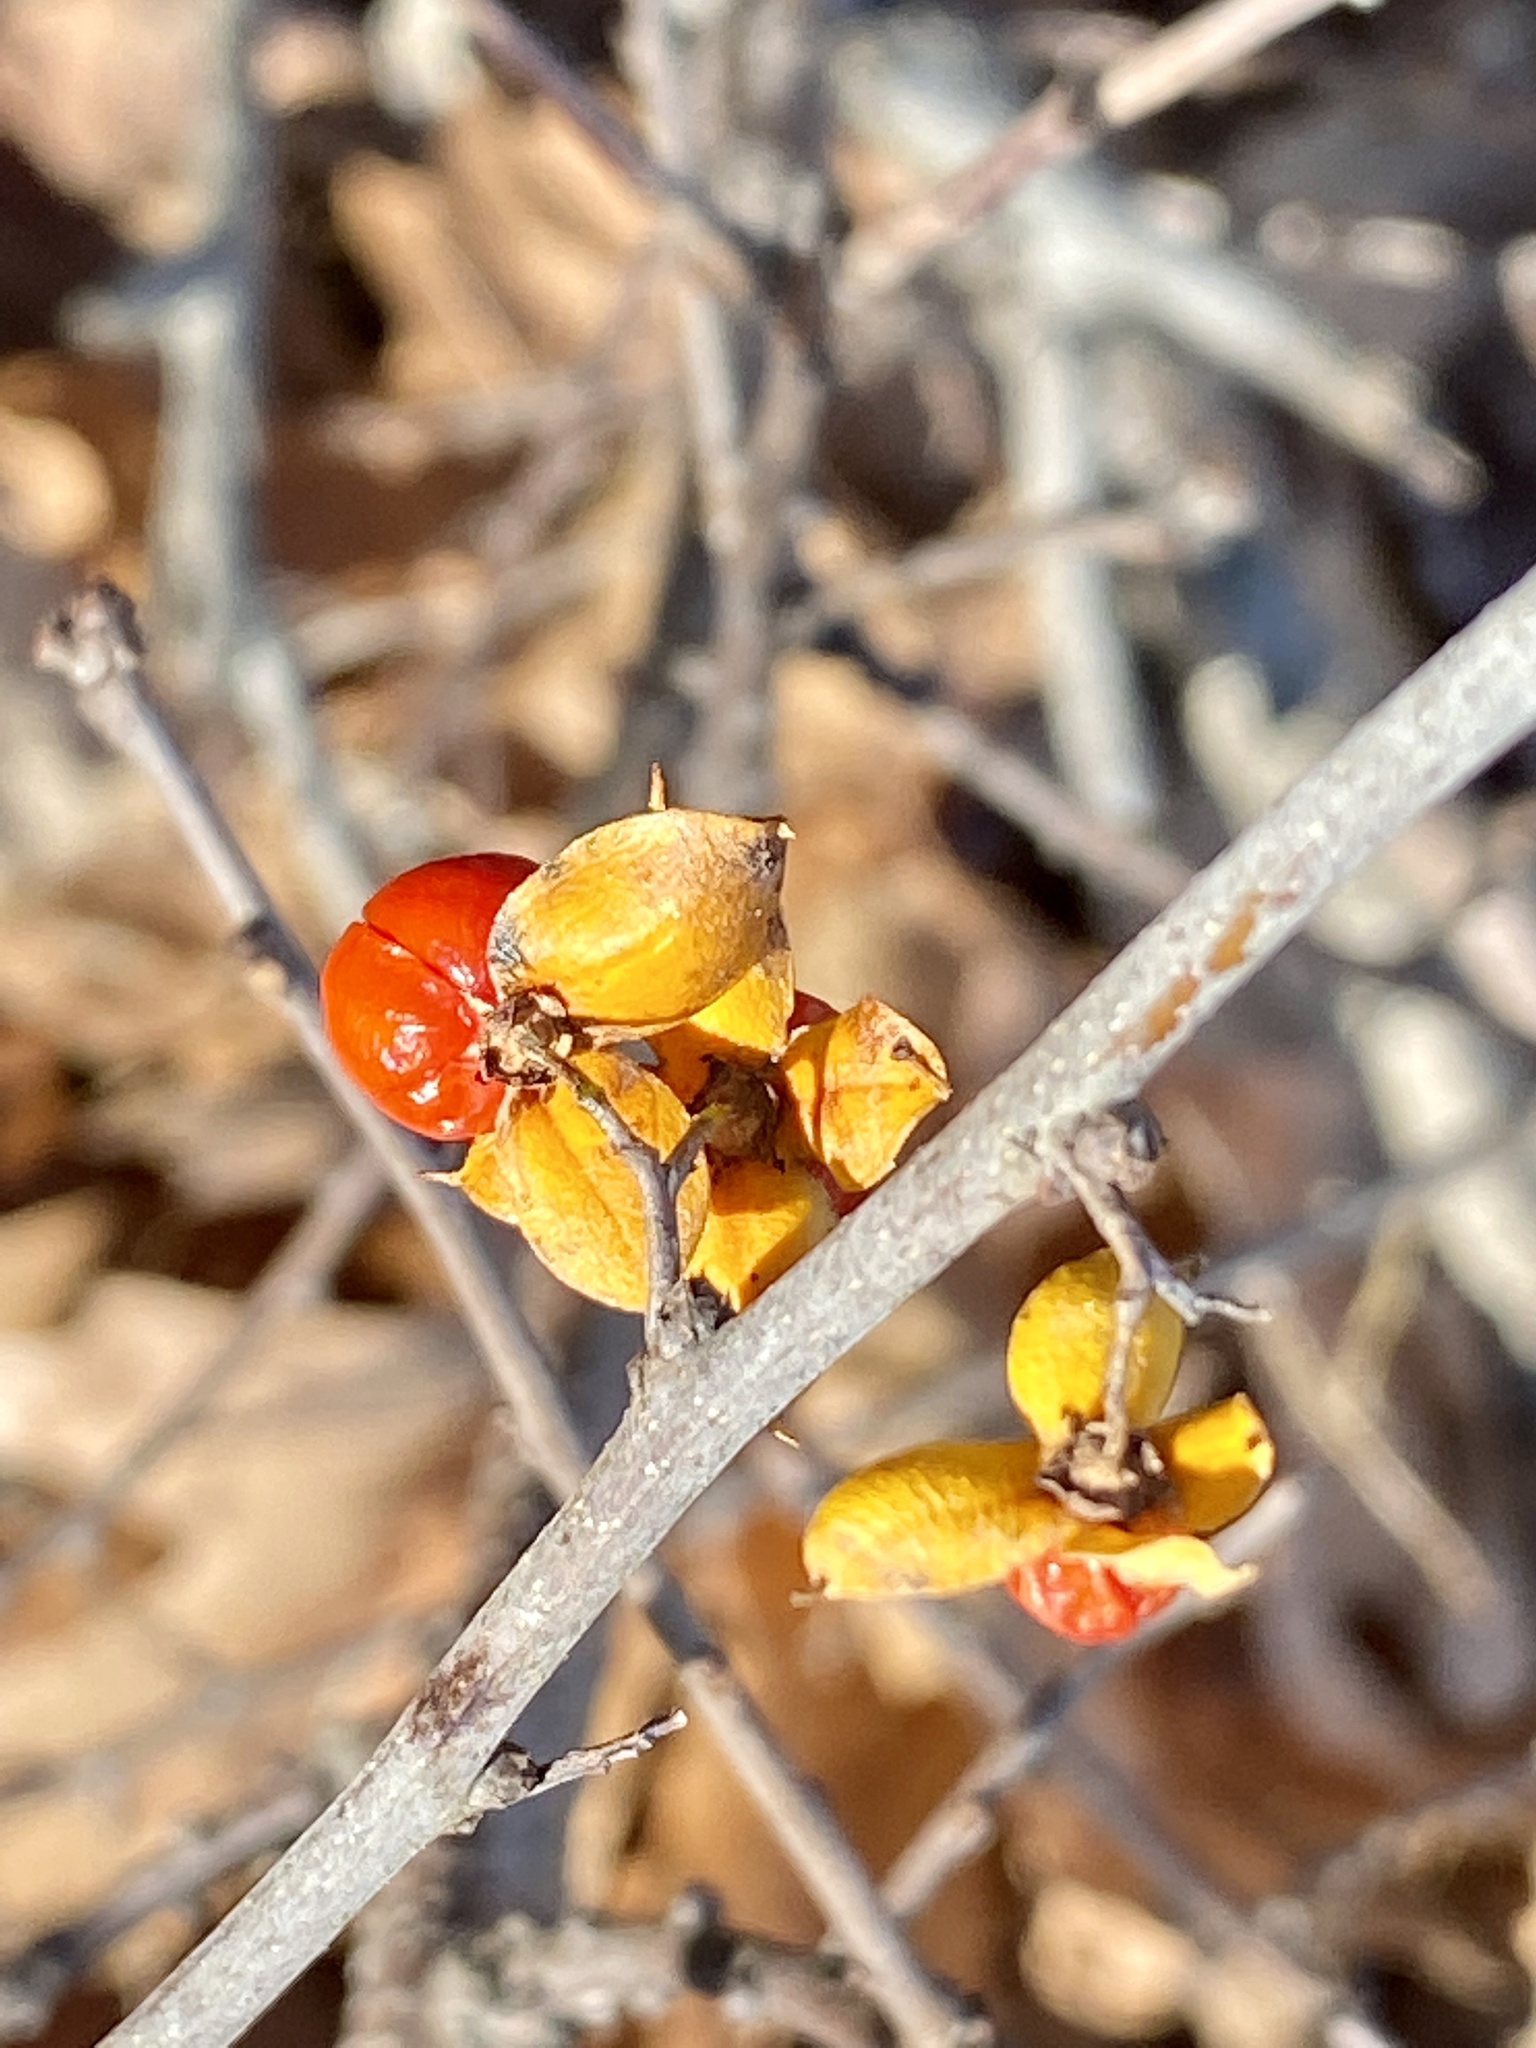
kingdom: Plantae
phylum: Tracheophyta
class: Magnoliopsida
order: Celastrales
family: Celastraceae
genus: Celastrus
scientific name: Celastrus orbiculatus
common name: Oriental bittersweet
